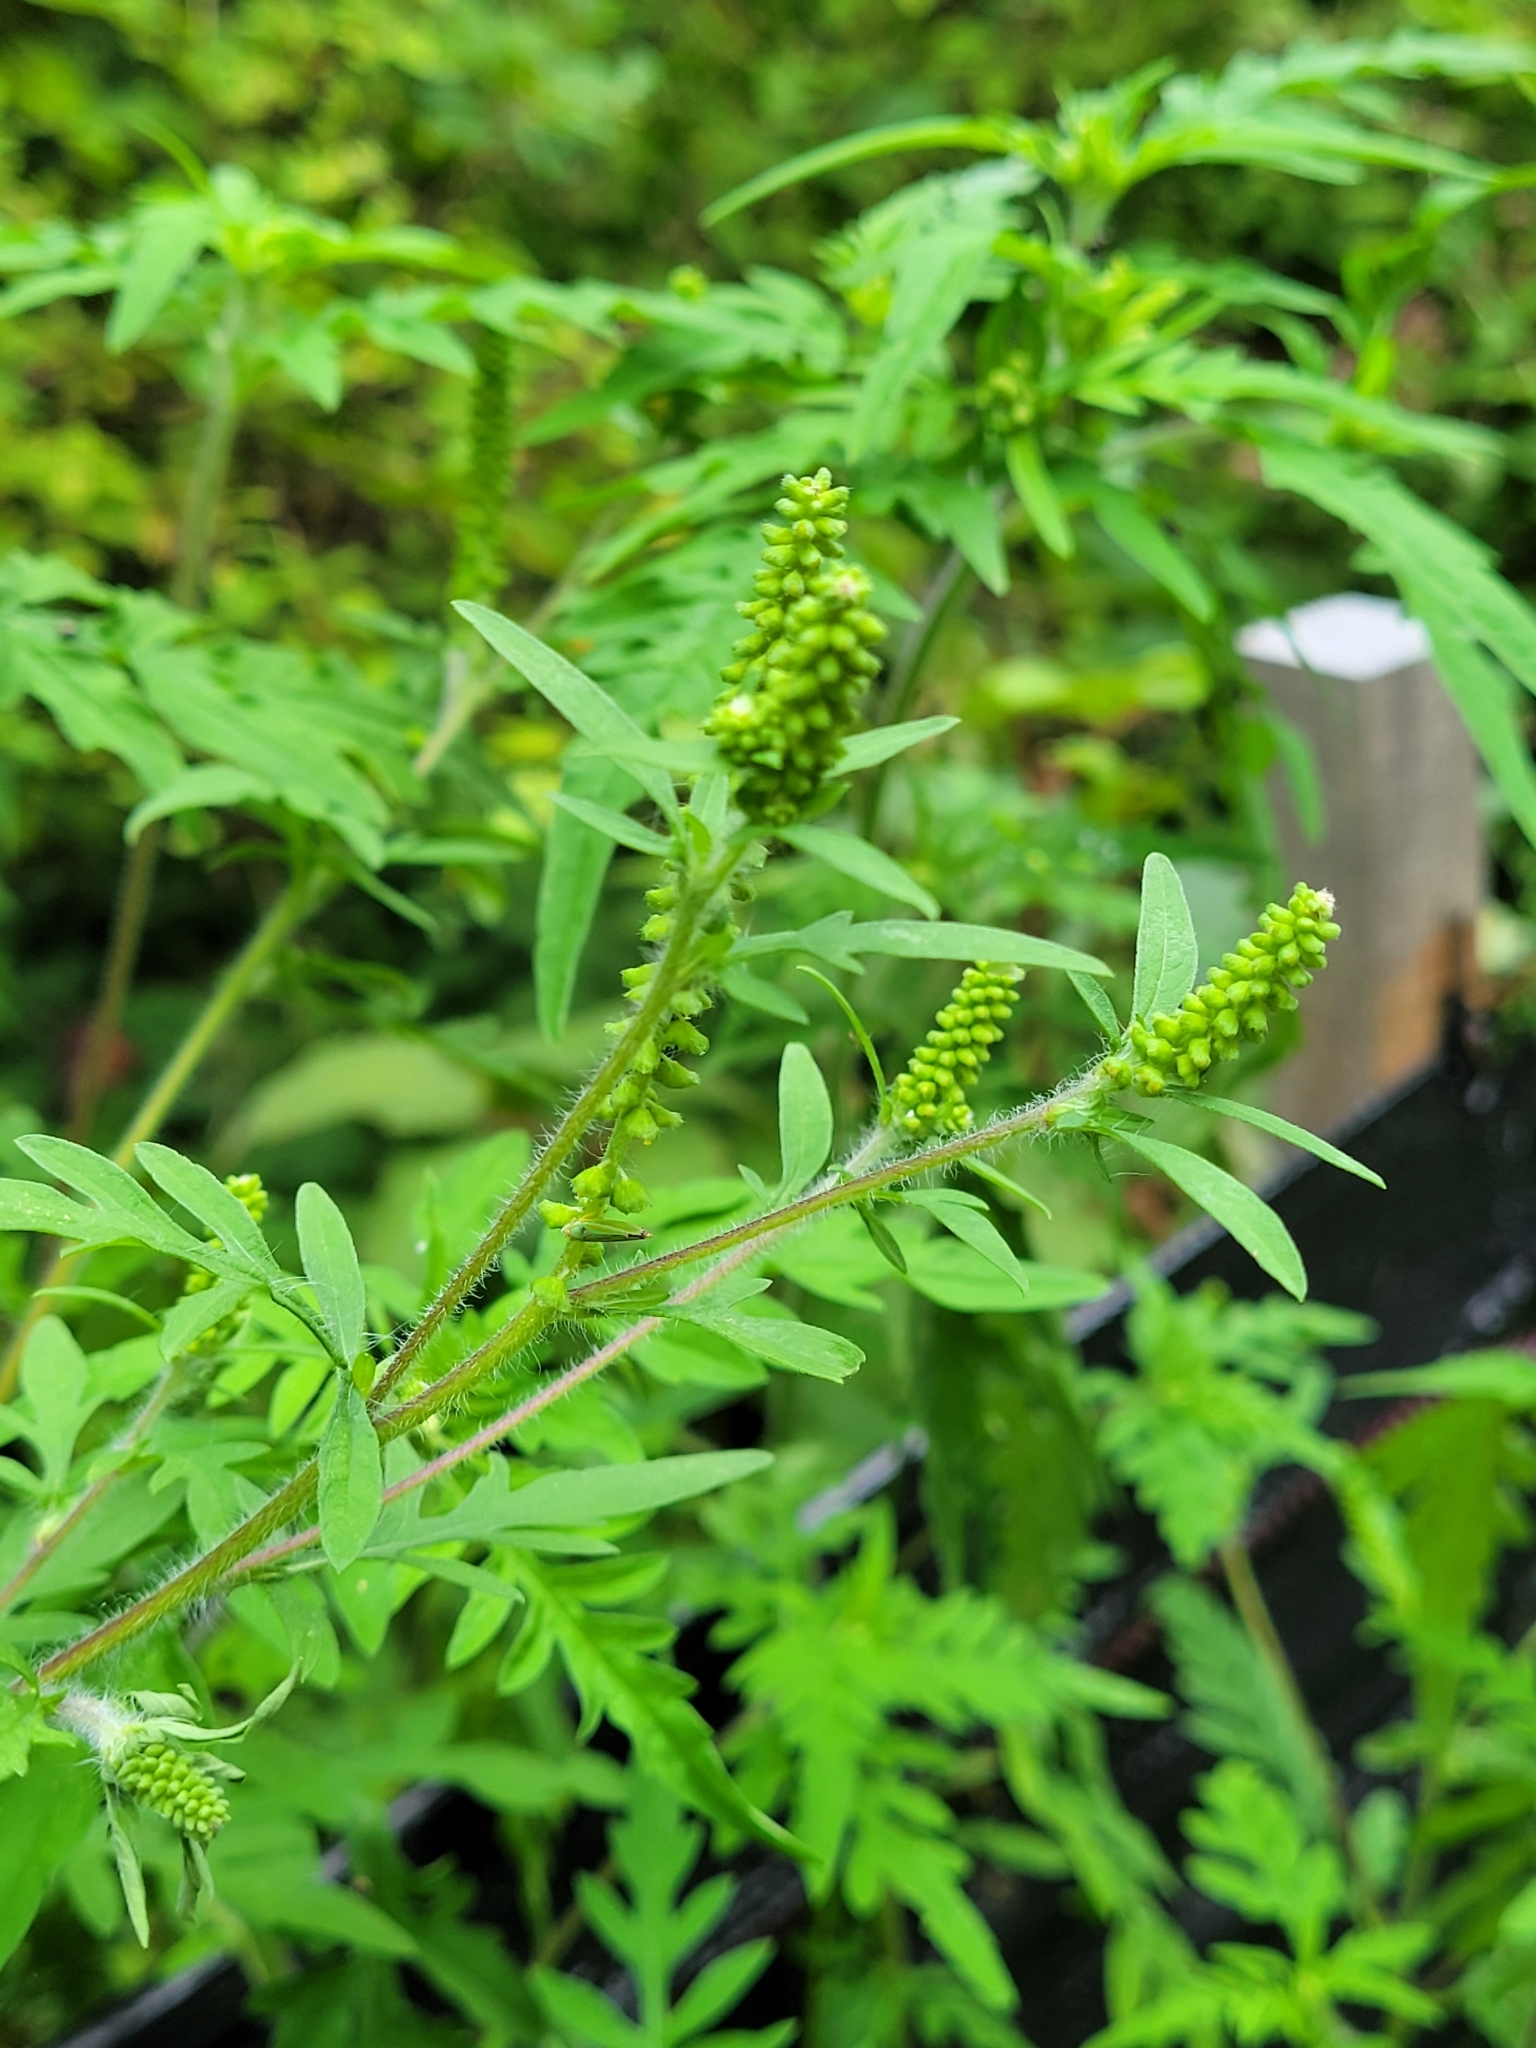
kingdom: Plantae
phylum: Tracheophyta
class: Magnoliopsida
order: Asterales
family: Asteraceae
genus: Ambrosia
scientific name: Ambrosia artemisiifolia
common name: Annual ragweed
